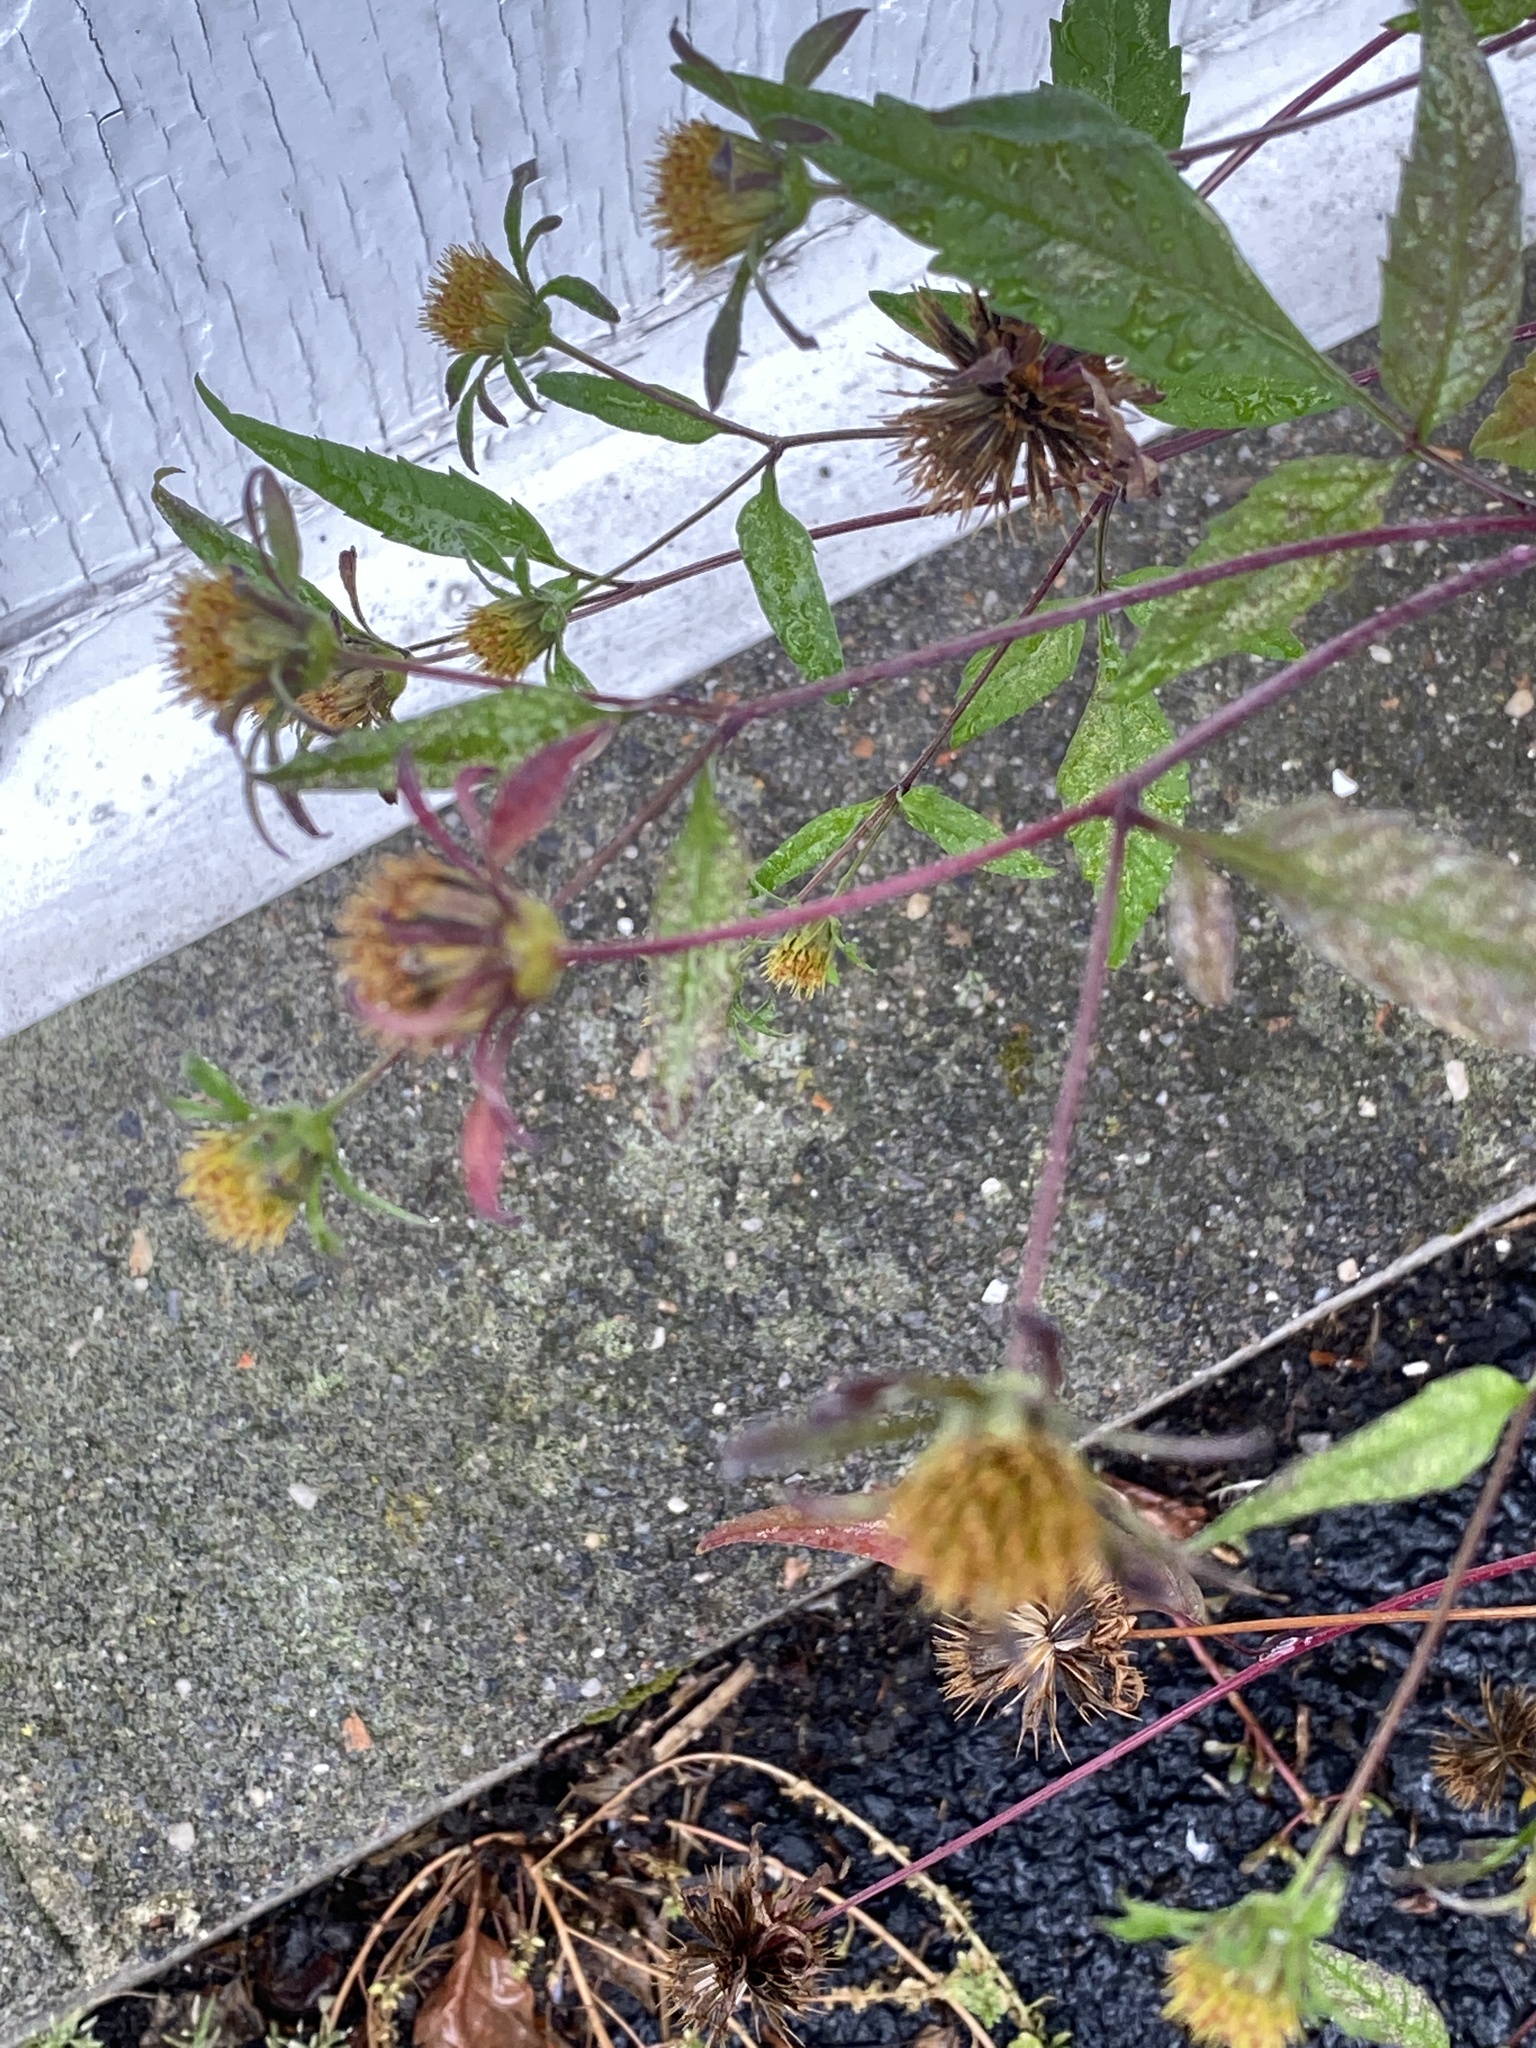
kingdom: Plantae
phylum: Tracheophyta
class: Magnoliopsida
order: Asterales
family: Asteraceae
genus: Bidens
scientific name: Bidens frondosa
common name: Beggarticks
